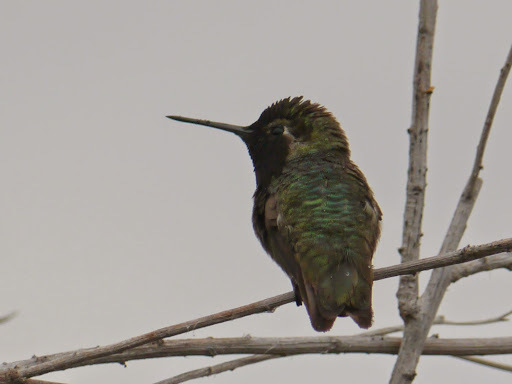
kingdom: Animalia
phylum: Chordata
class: Aves
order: Apodiformes
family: Trochilidae
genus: Calypte
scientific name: Calypte anna
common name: Anna's hummingbird
